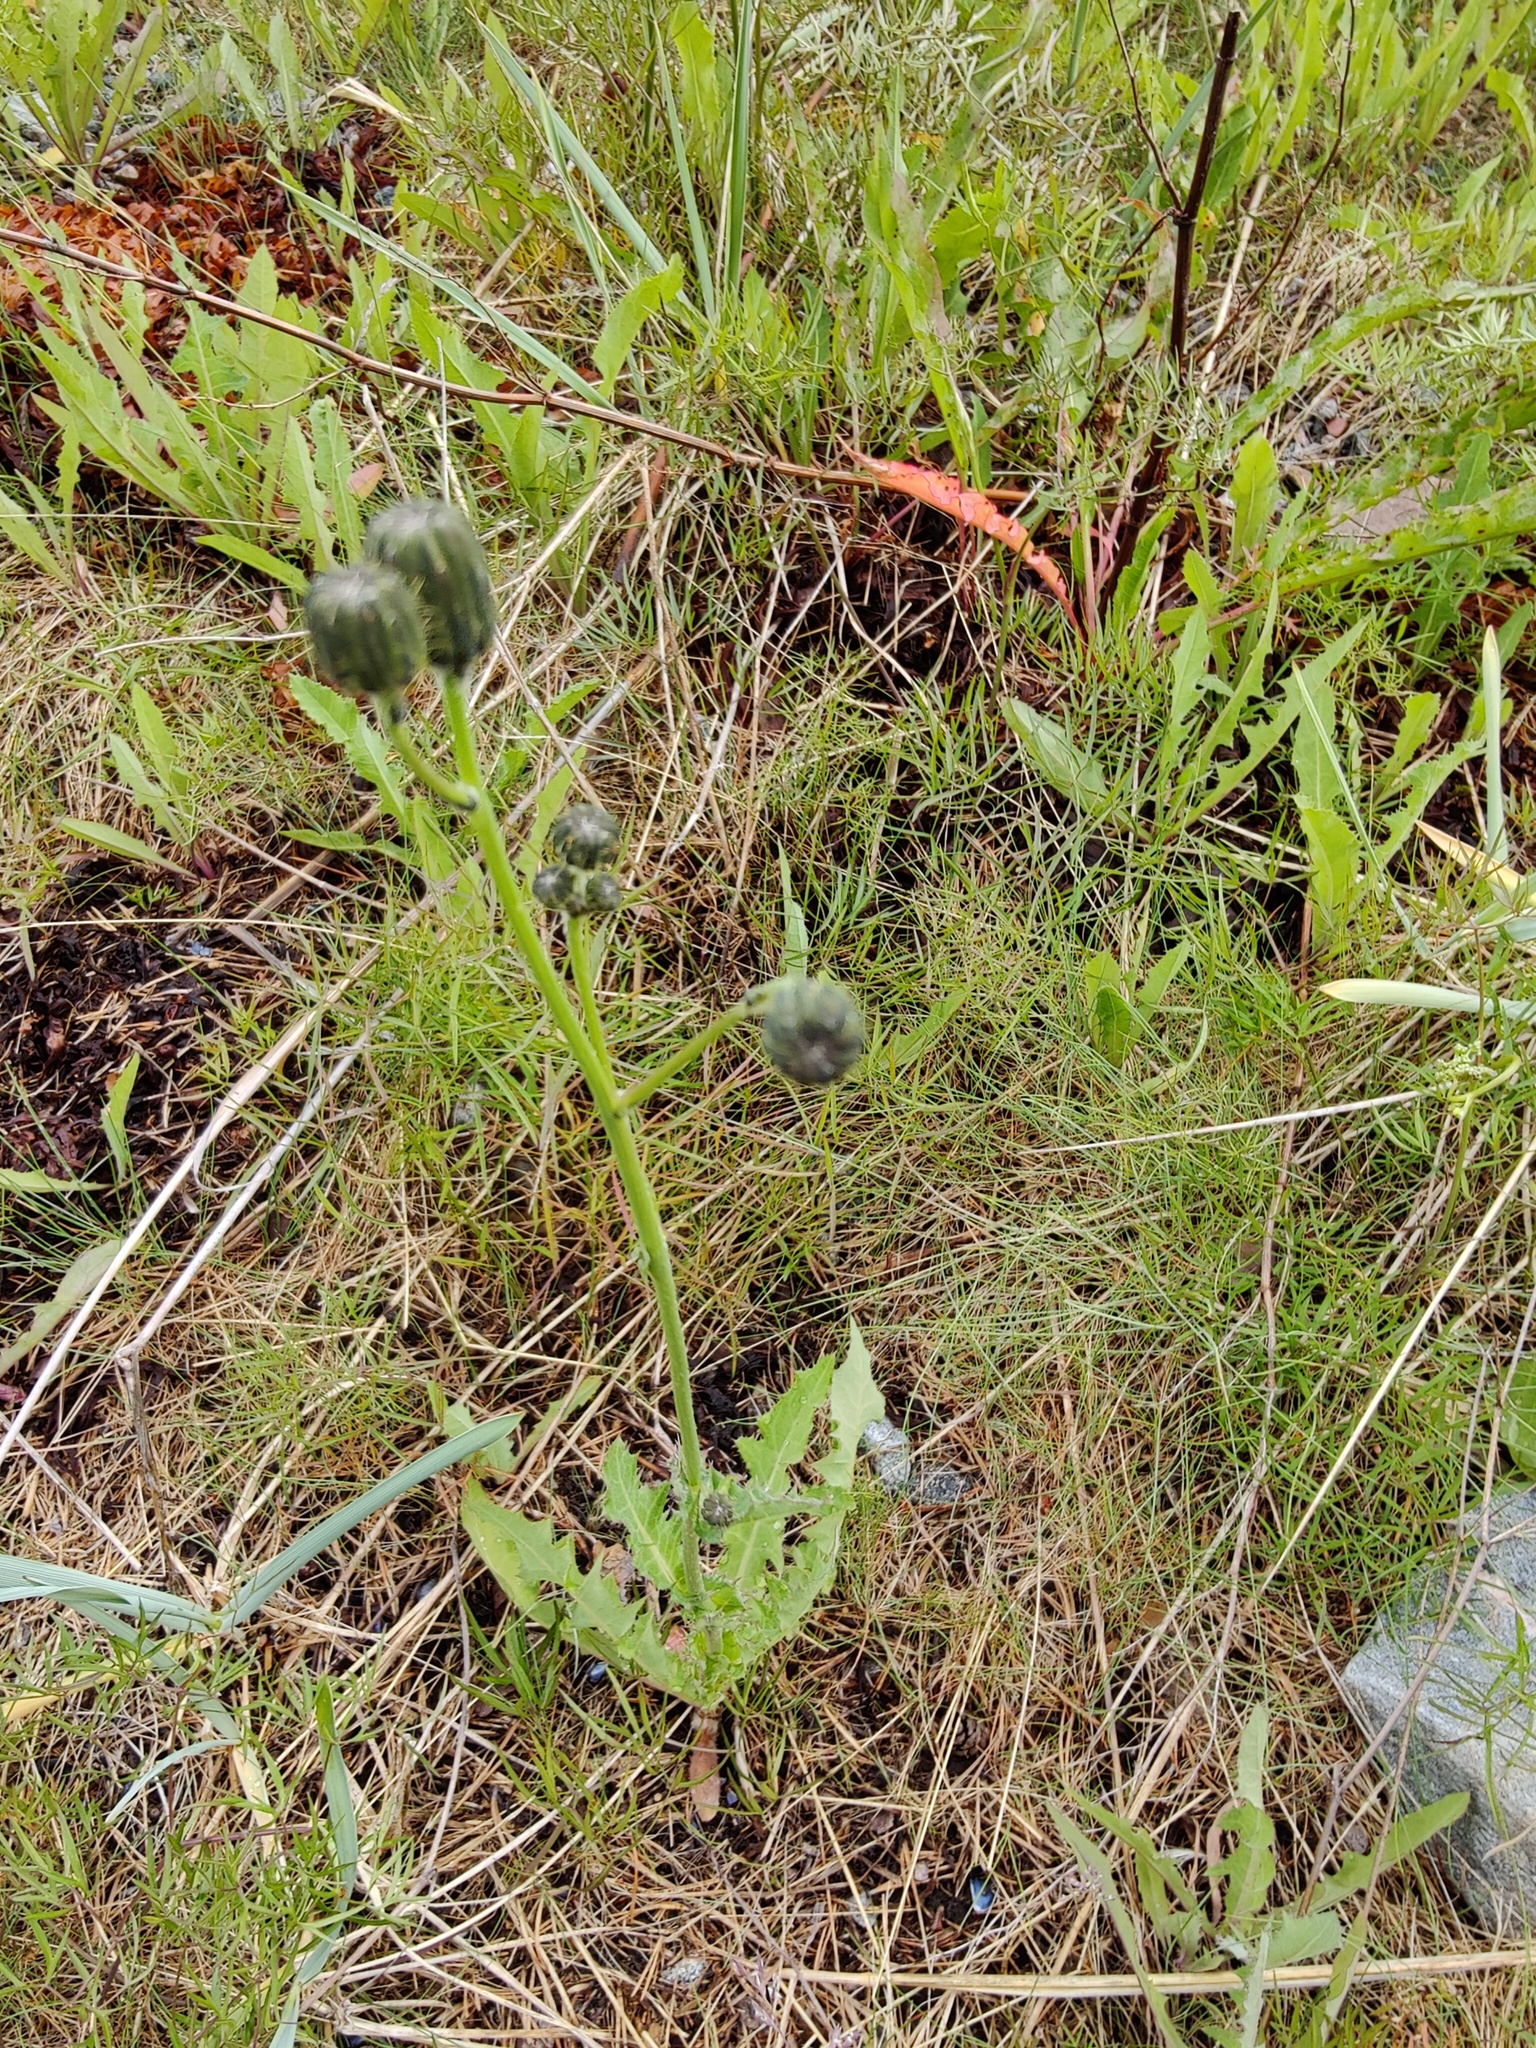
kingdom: Plantae
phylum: Tracheophyta
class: Magnoliopsida
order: Asterales
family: Asteraceae
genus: Sonchus
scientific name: Sonchus arvensis
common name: Perennial sow-thistle
